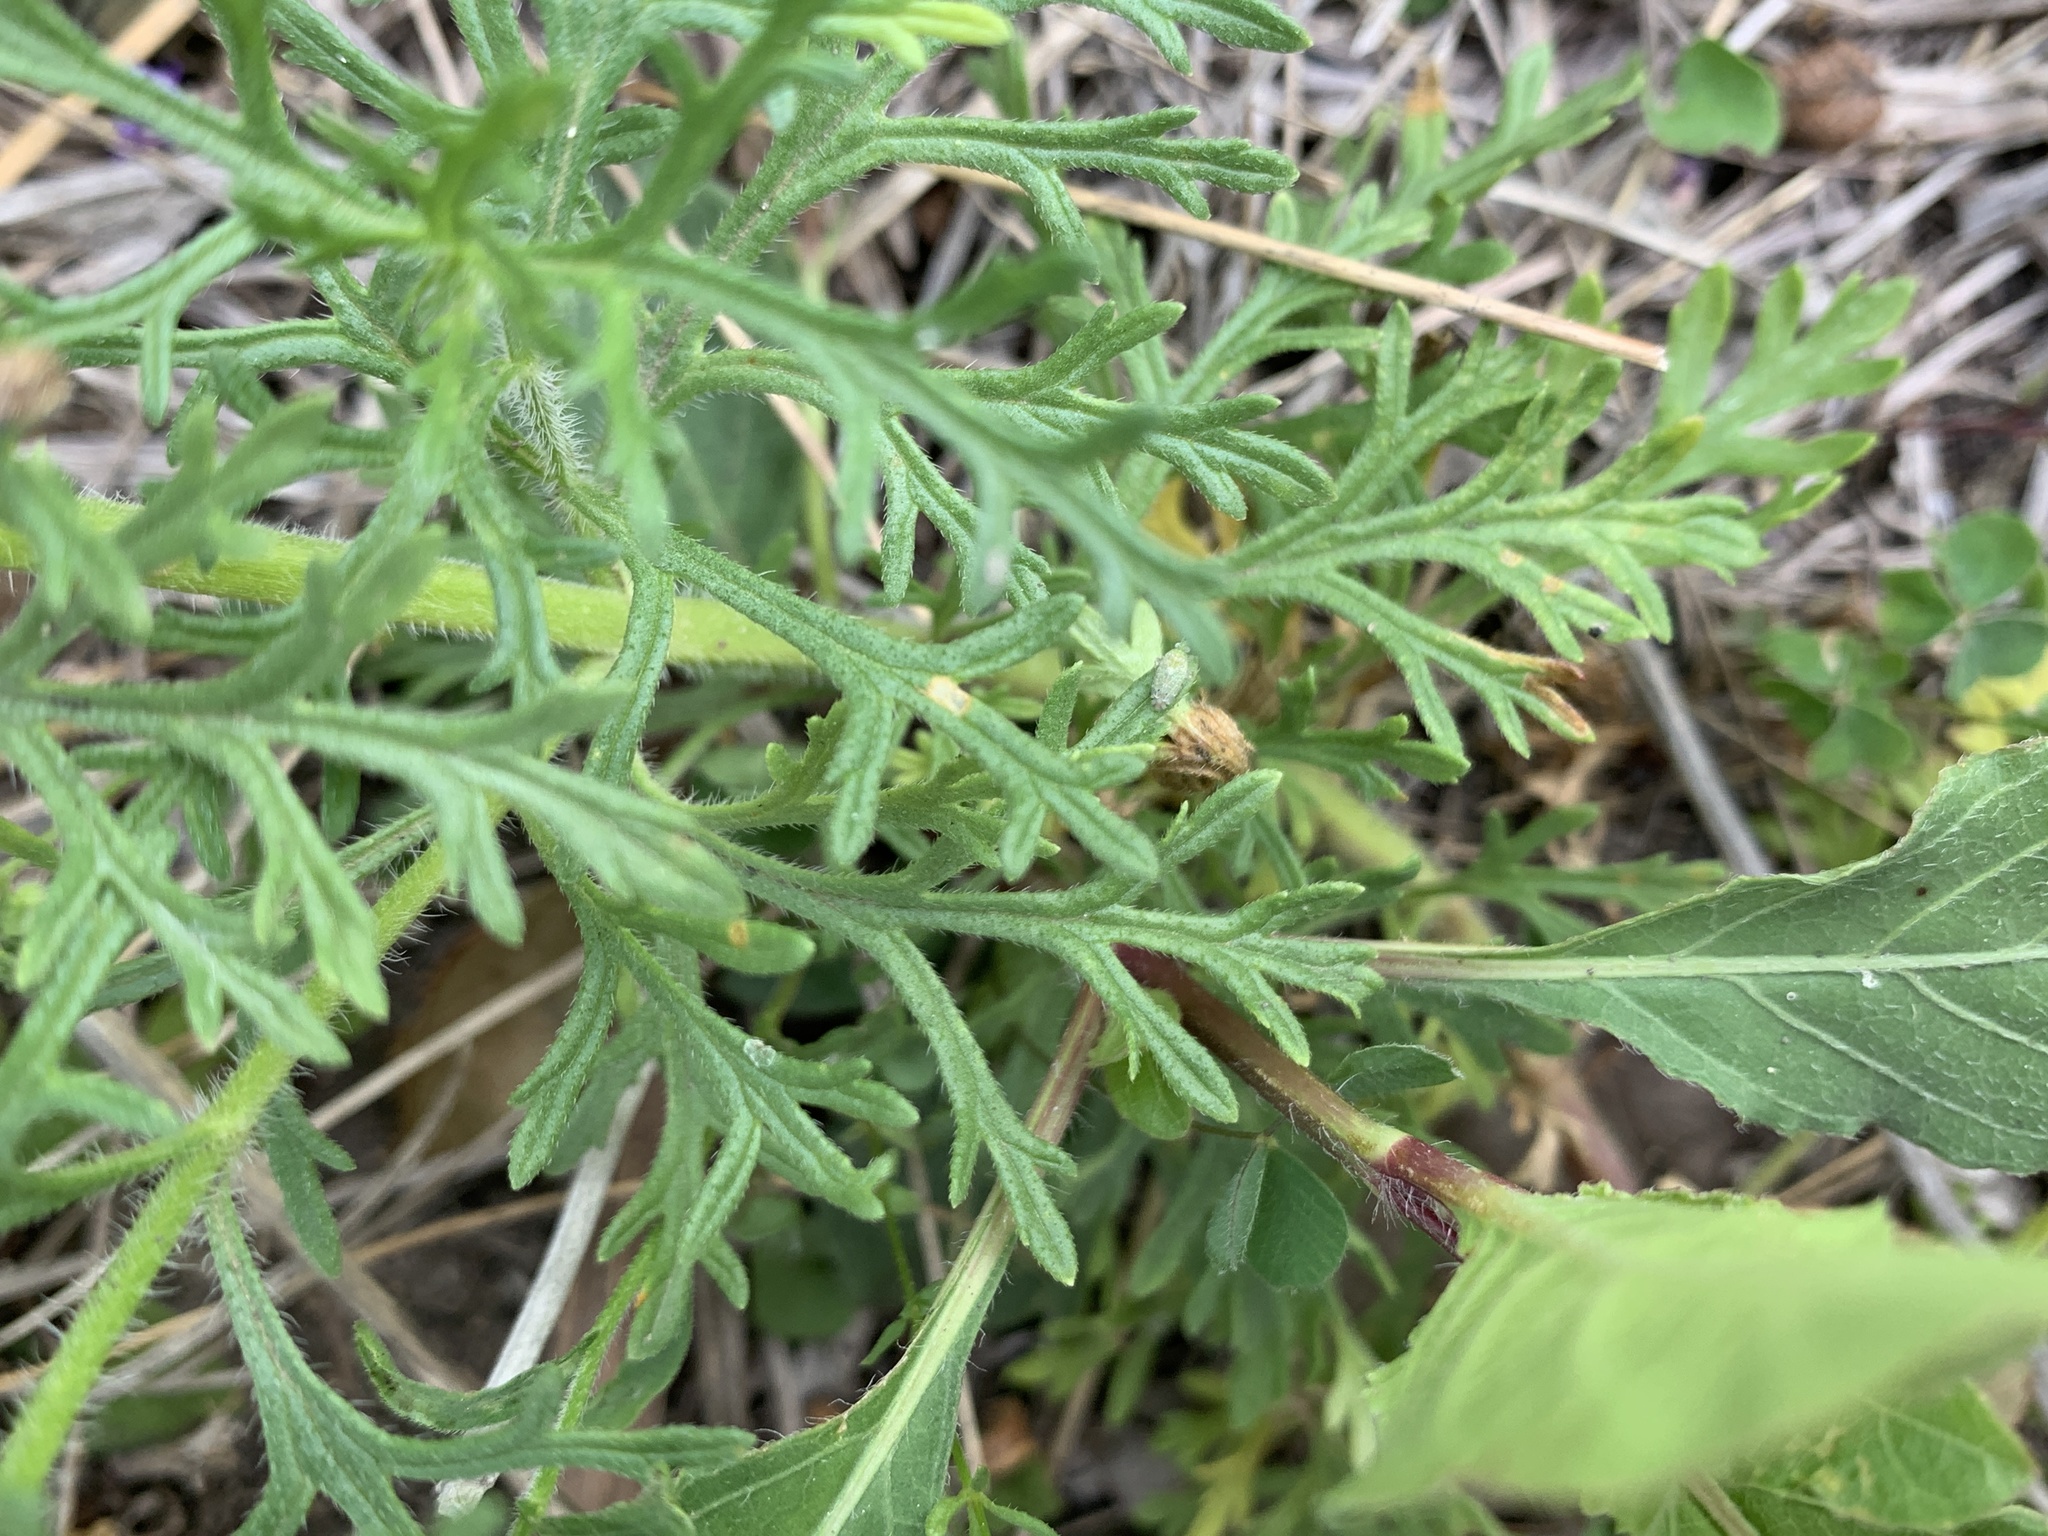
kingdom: Plantae
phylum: Tracheophyta
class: Magnoliopsida
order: Lamiales
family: Verbenaceae
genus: Verbena
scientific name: Verbena bipinnatifida
